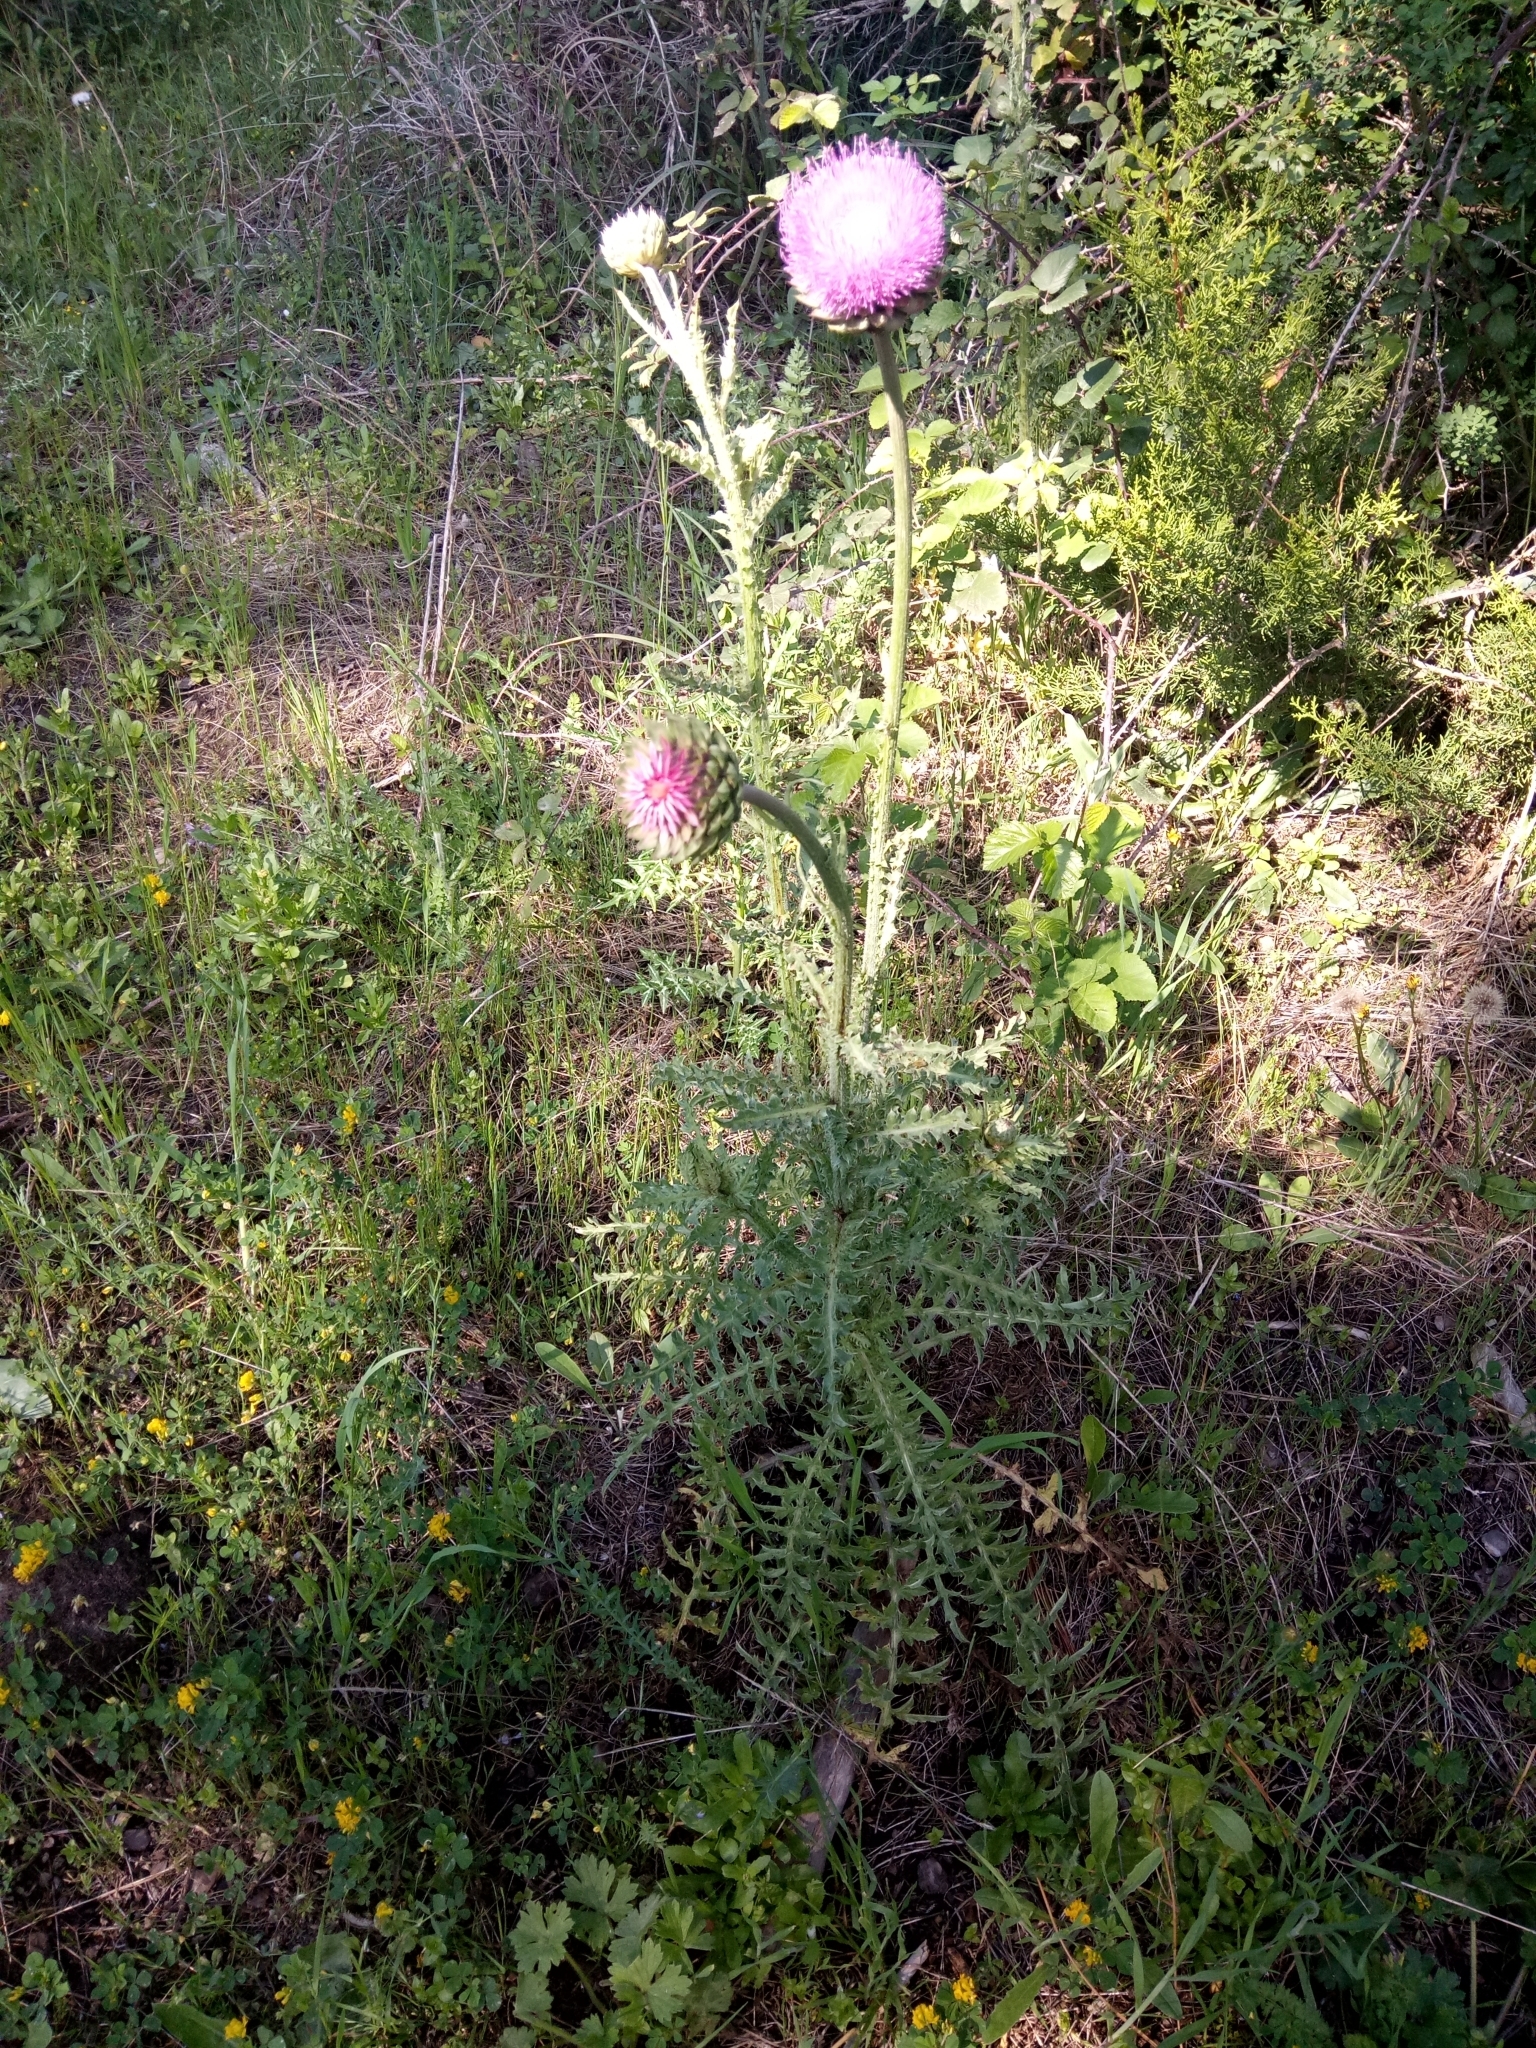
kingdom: Plantae
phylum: Tracheophyta
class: Magnoliopsida
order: Asterales
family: Asteraceae
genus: Carduus
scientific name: Carduus numidicus
